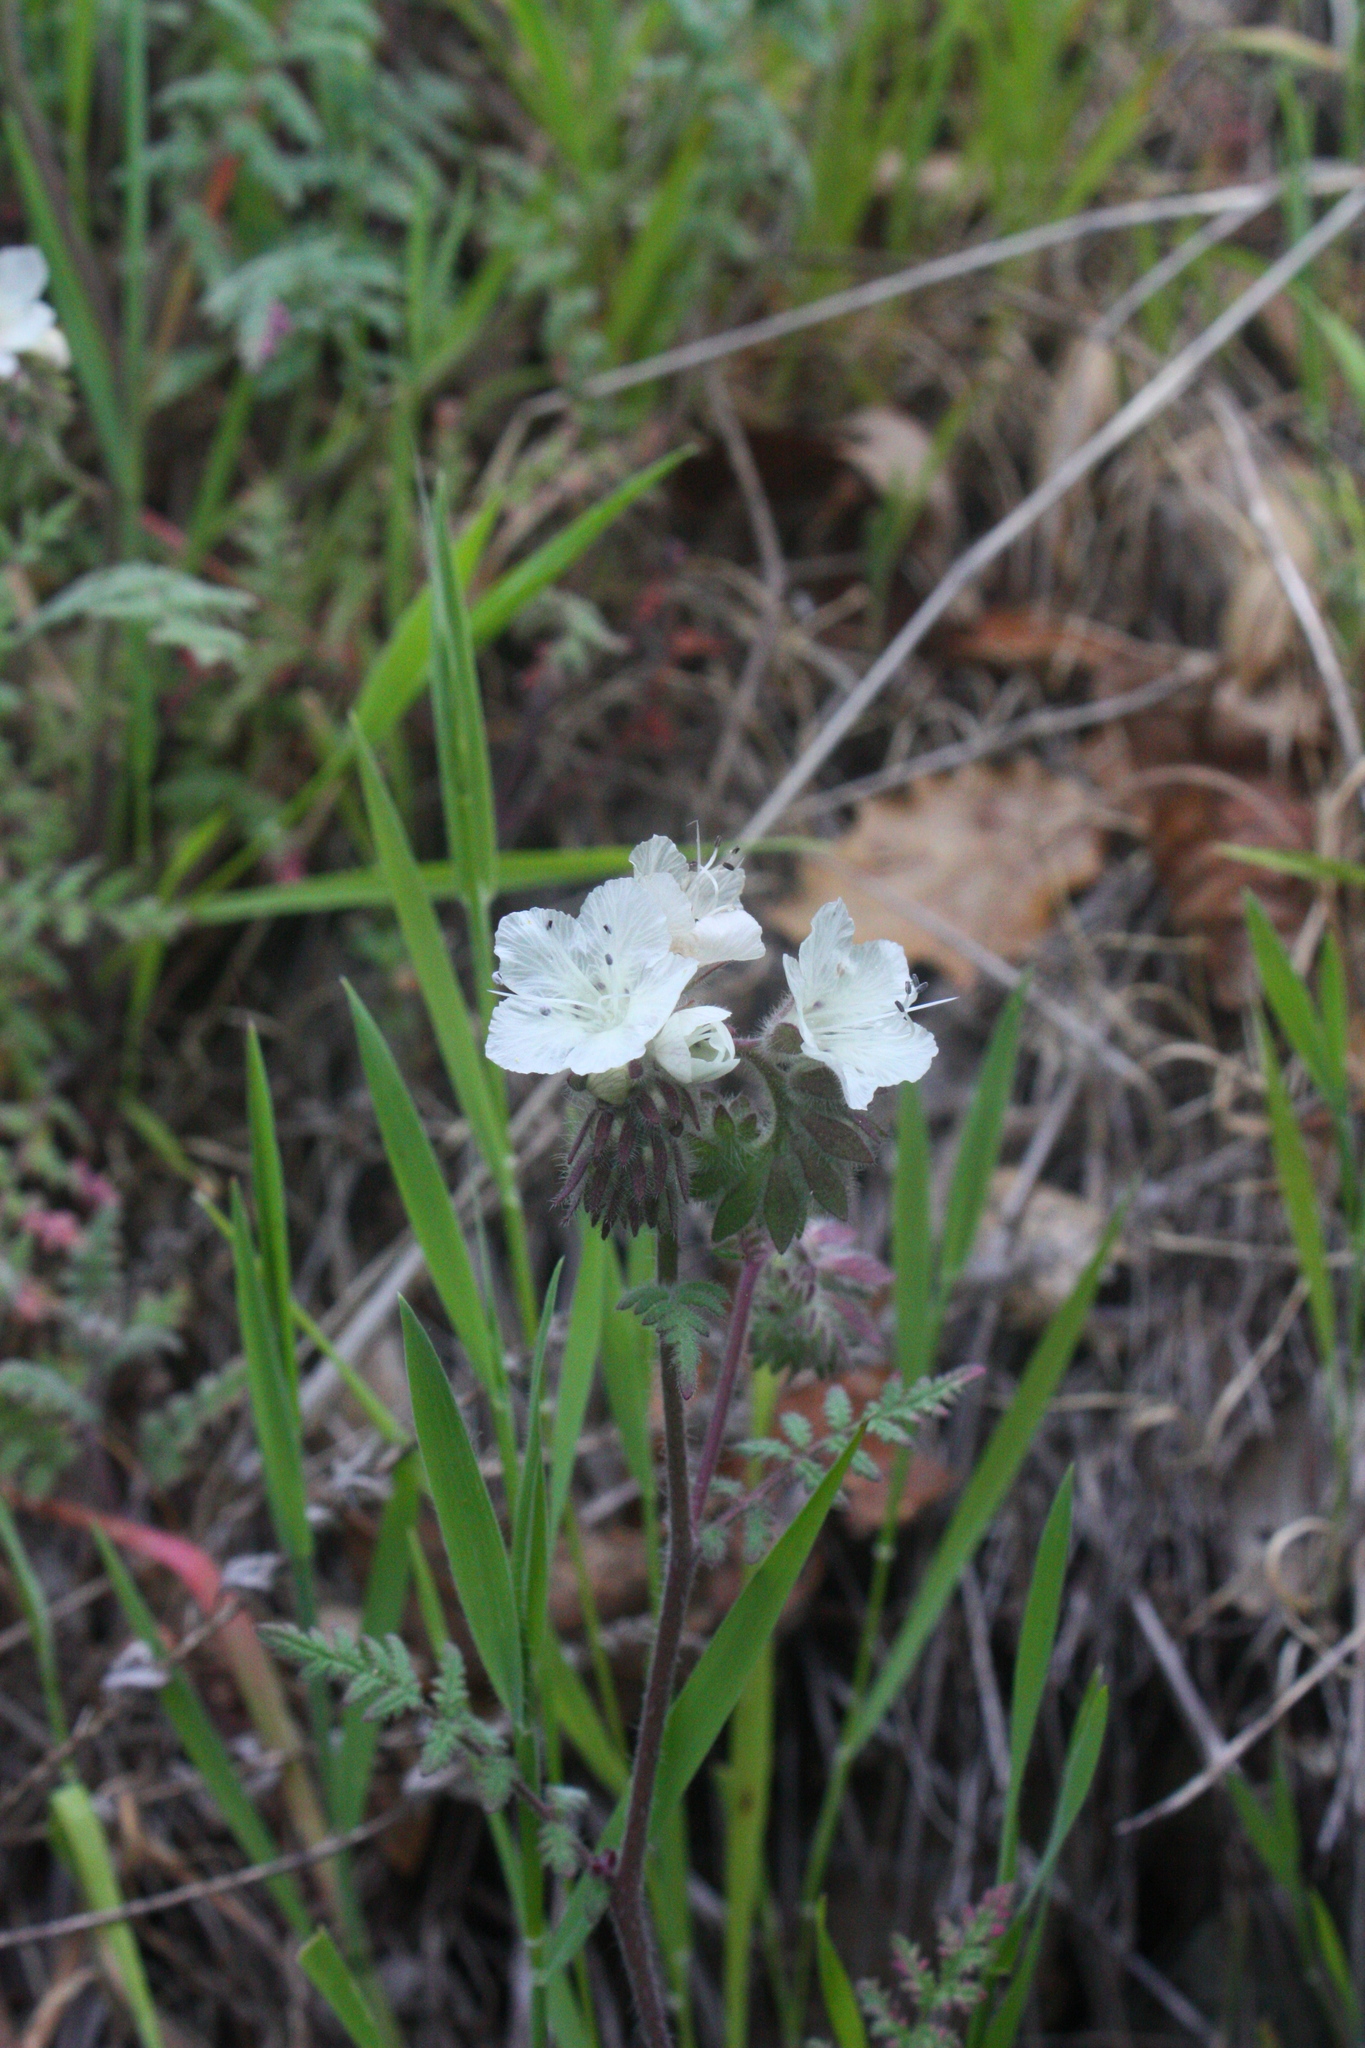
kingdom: Plantae
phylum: Tracheophyta
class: Magnoliopsida
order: Boraginales
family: Hydrophyllaceae
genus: Phacelia
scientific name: Phacelia distans
